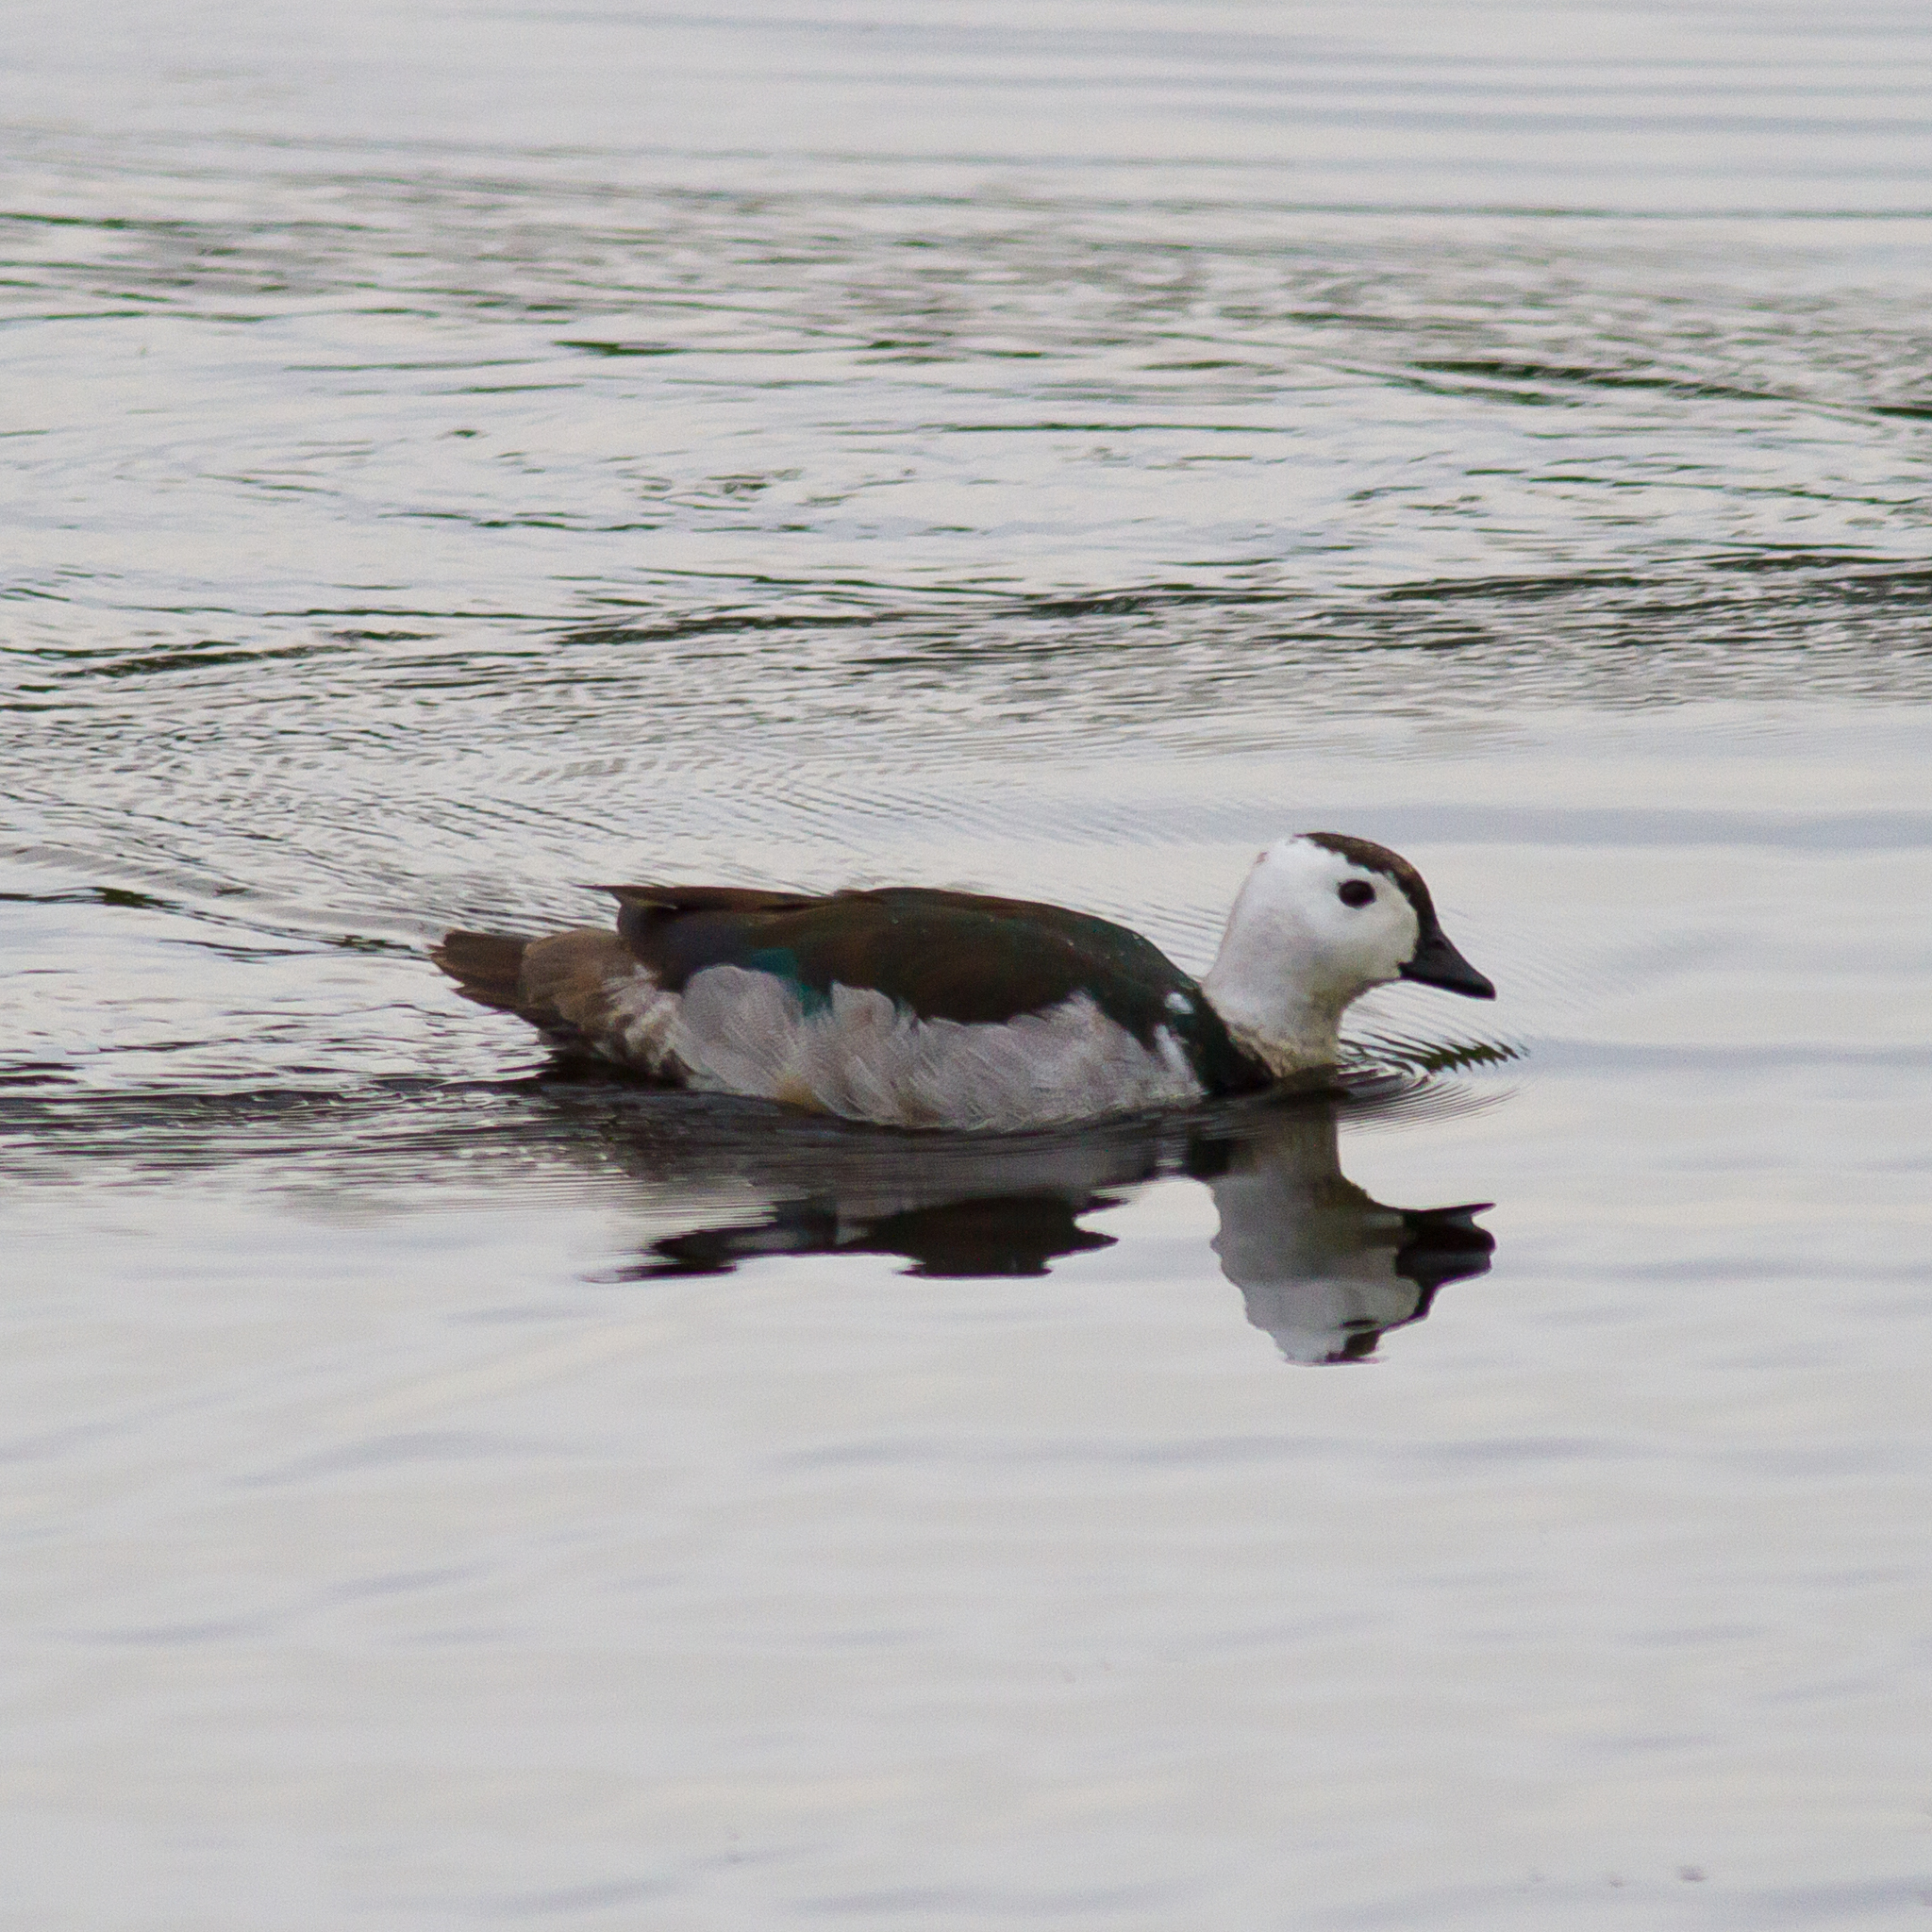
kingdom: Animalia
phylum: Chordata
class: Aves
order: Anseriformes
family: Anatidae
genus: Nettapus
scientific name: Nettapus coromandelianus
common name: Cotton pygmy-goose
